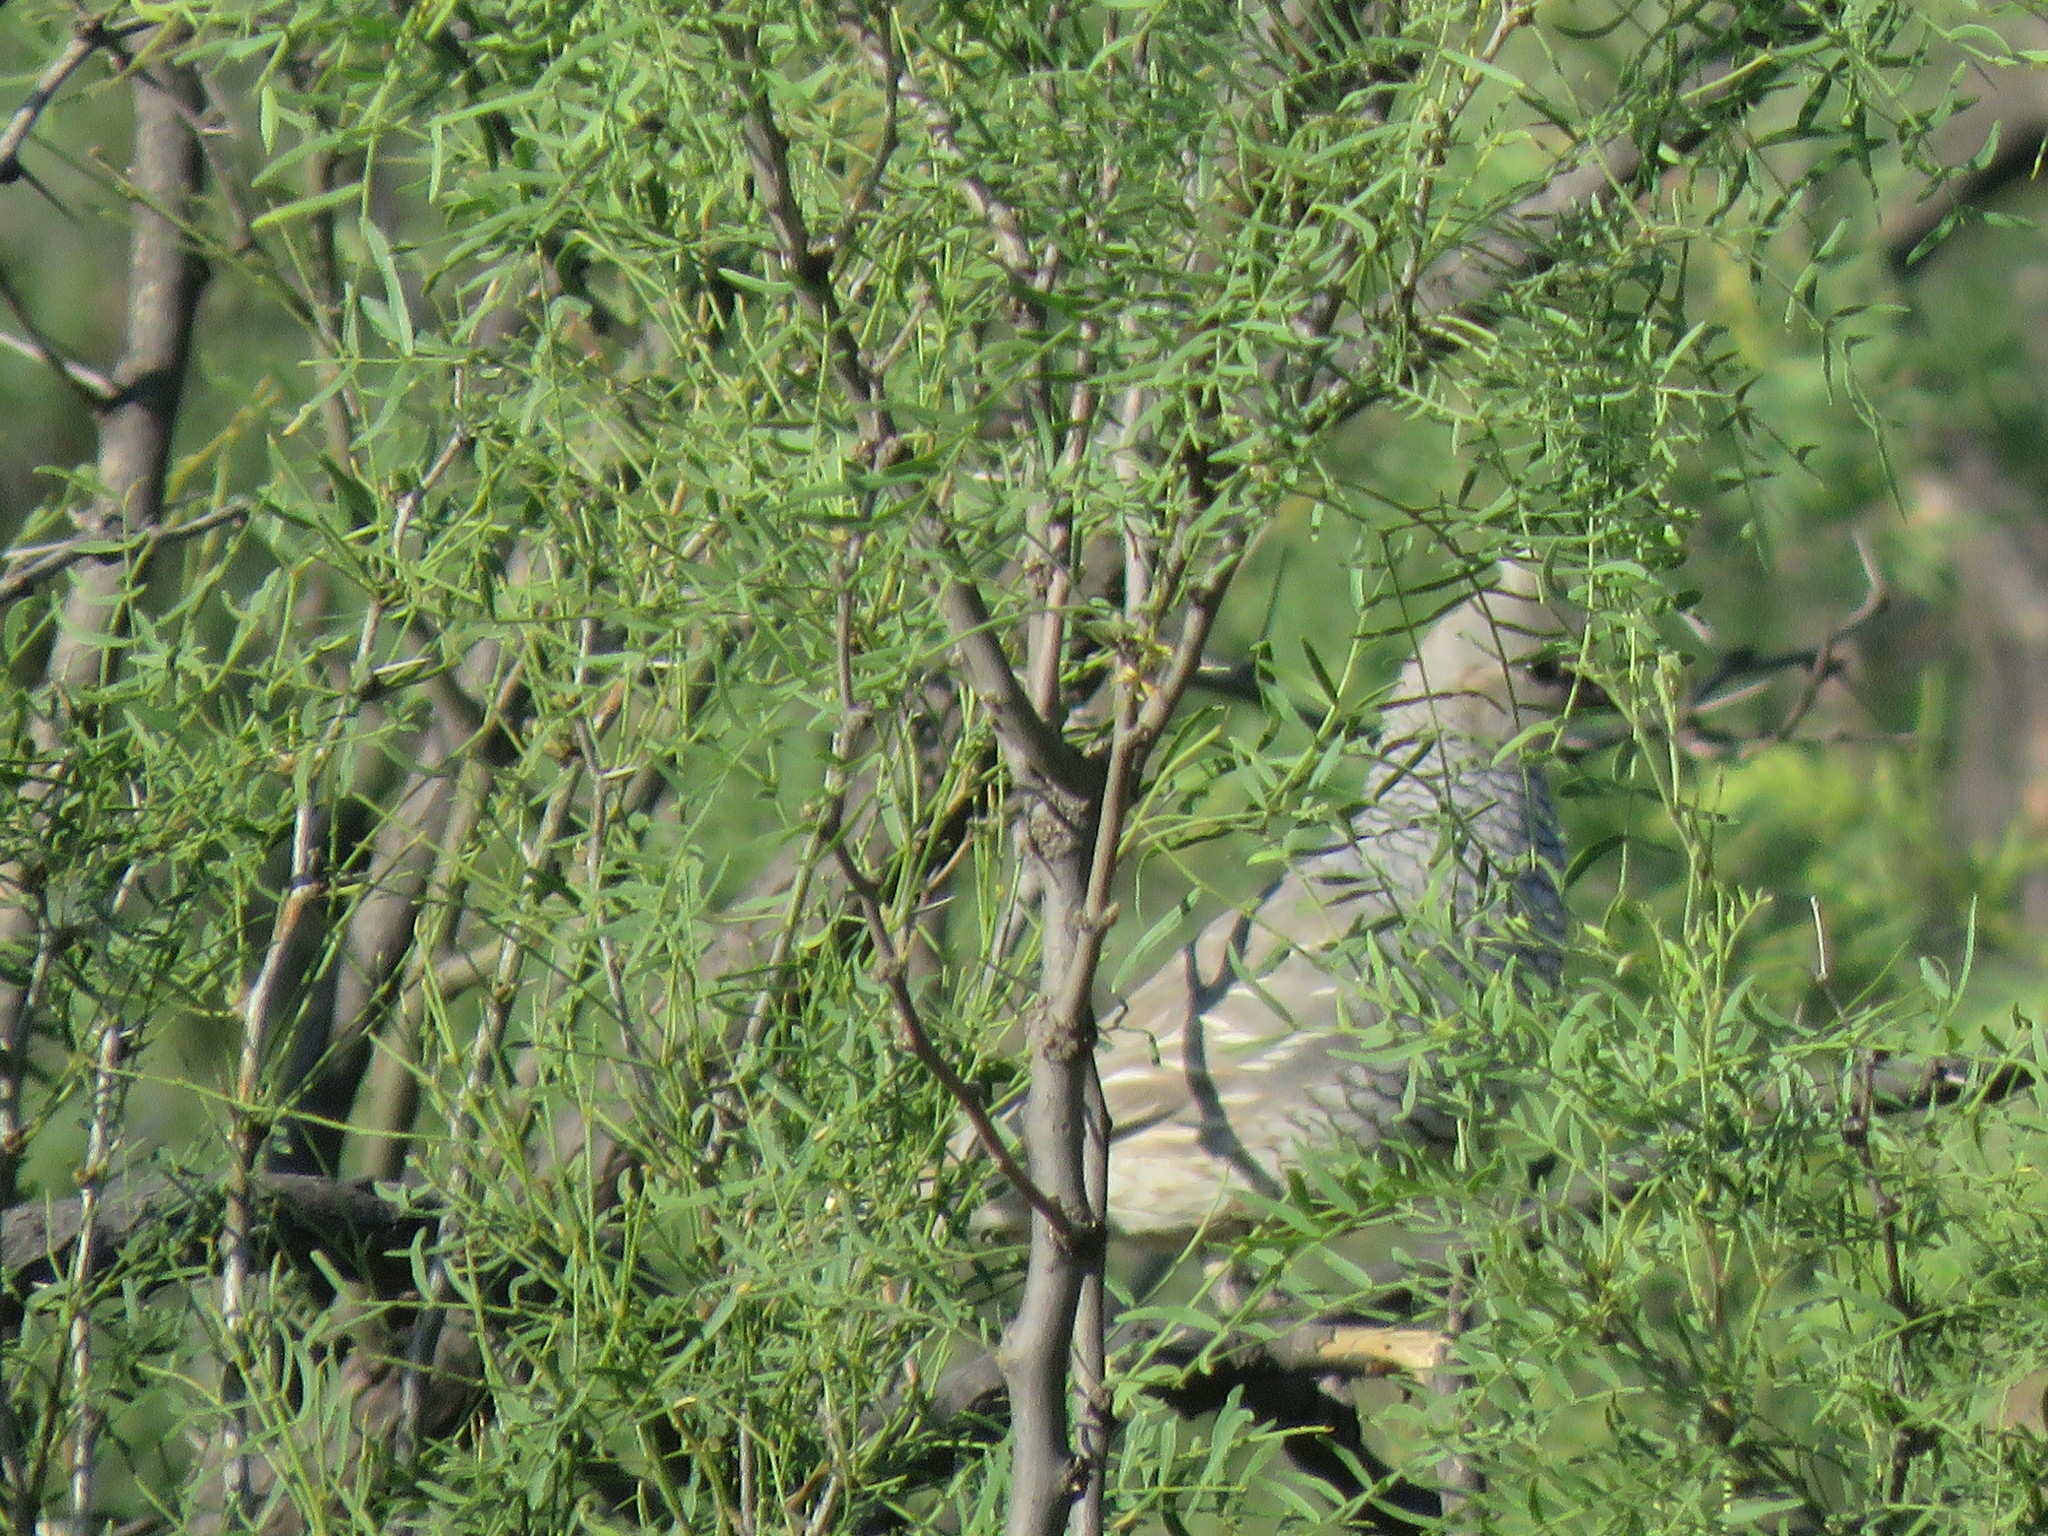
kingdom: Animalia
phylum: Chordata
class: Aves
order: Galliformes
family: Odontophoridae
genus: Callipepla
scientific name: Callipepla squamata
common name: Scaled quail
